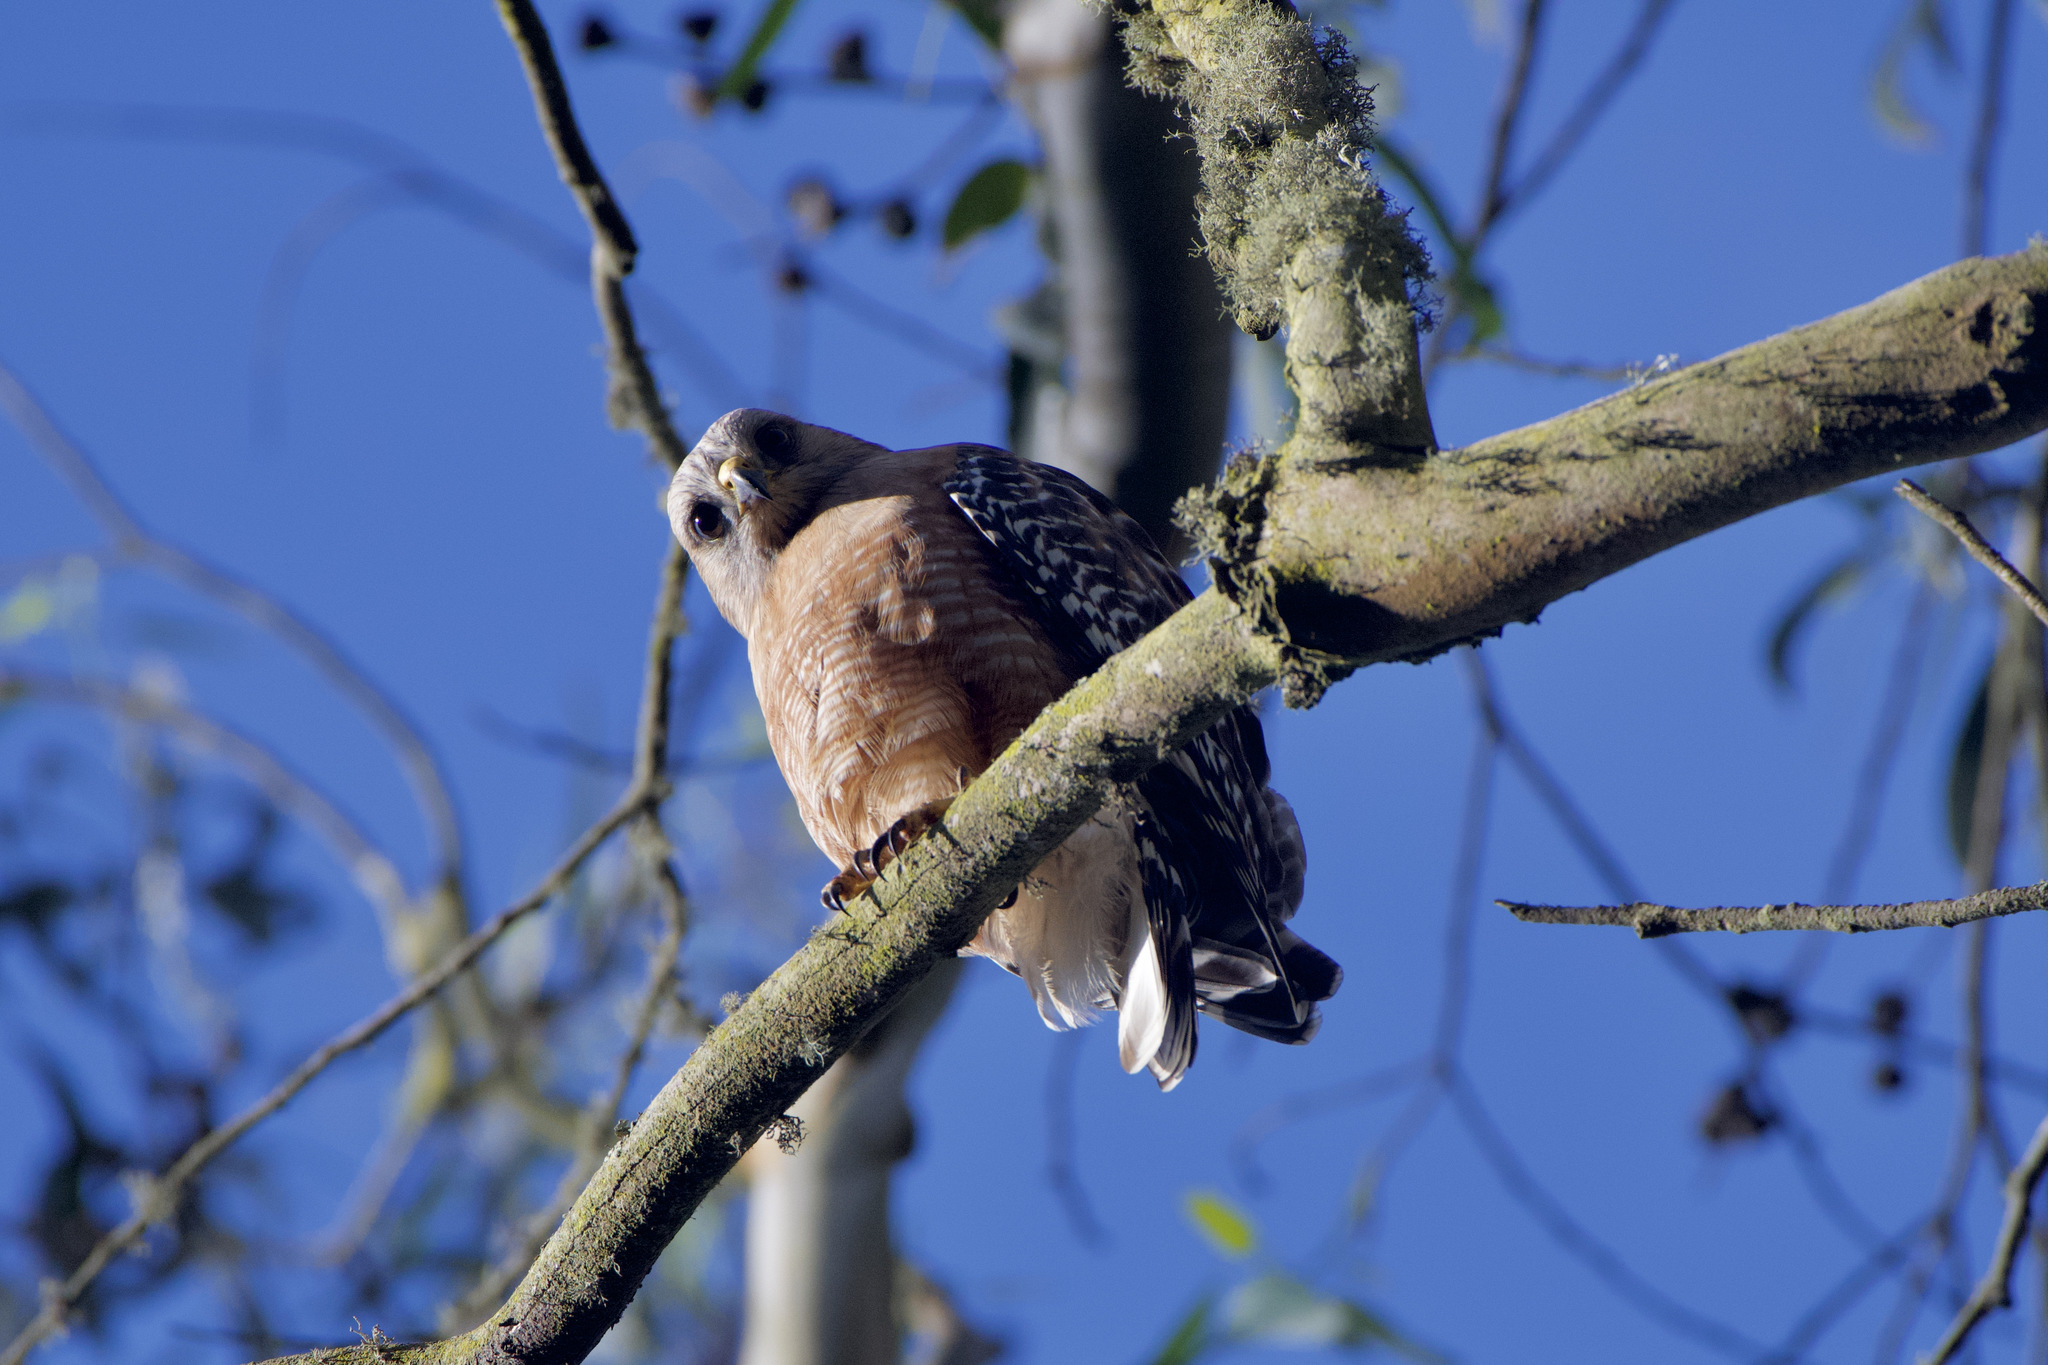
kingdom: Animalia
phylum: Chordata
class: Aves
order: Accipitriformes
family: Accipitridae
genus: Buteo
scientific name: Buteo lineatus
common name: Red-shouldered hawk
